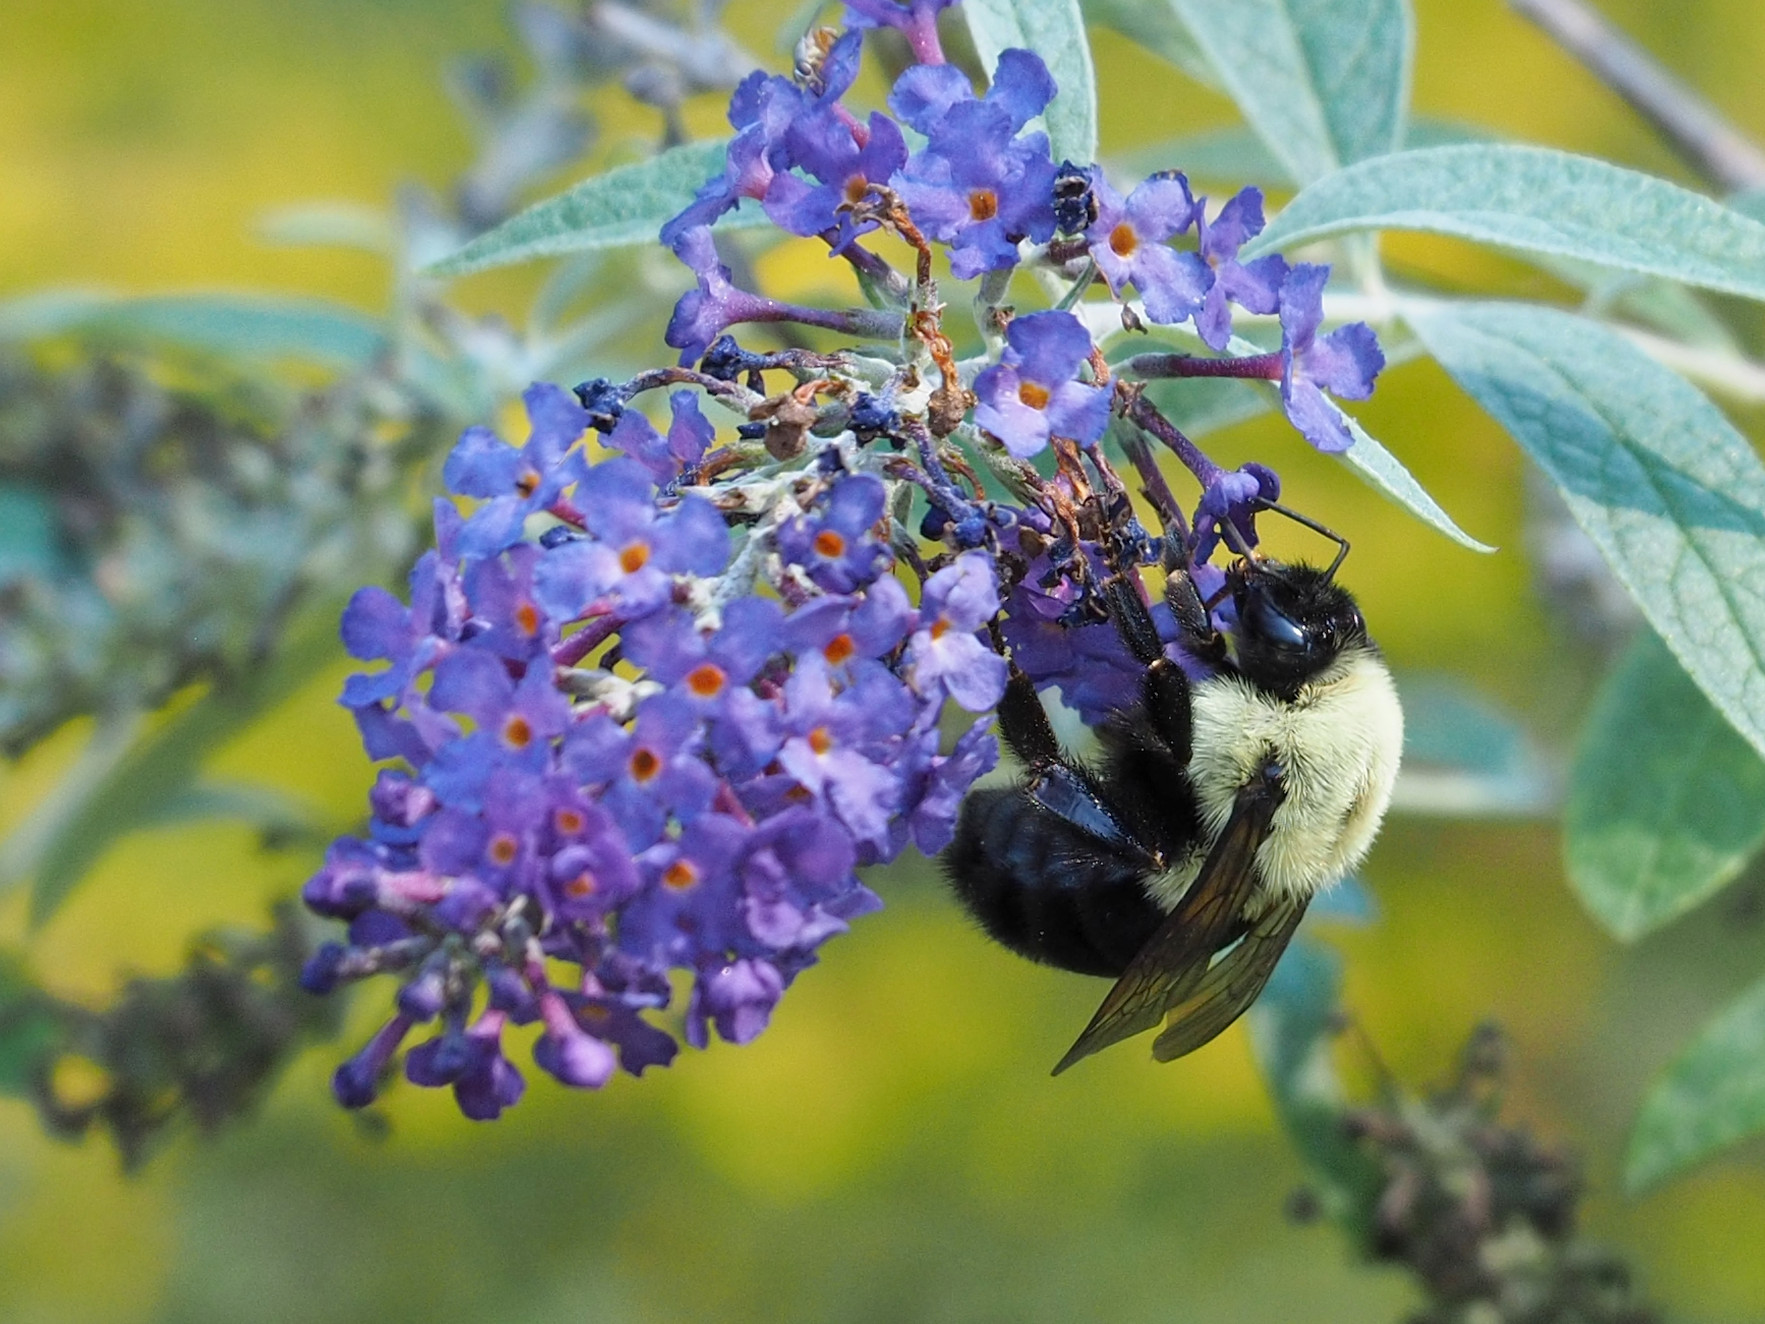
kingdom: Animalia
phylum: Arthropoda
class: Insecta
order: Hymenoptera
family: Apidae
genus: Bombus
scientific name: Bombus impatiens
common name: Common eastern bumble bee
